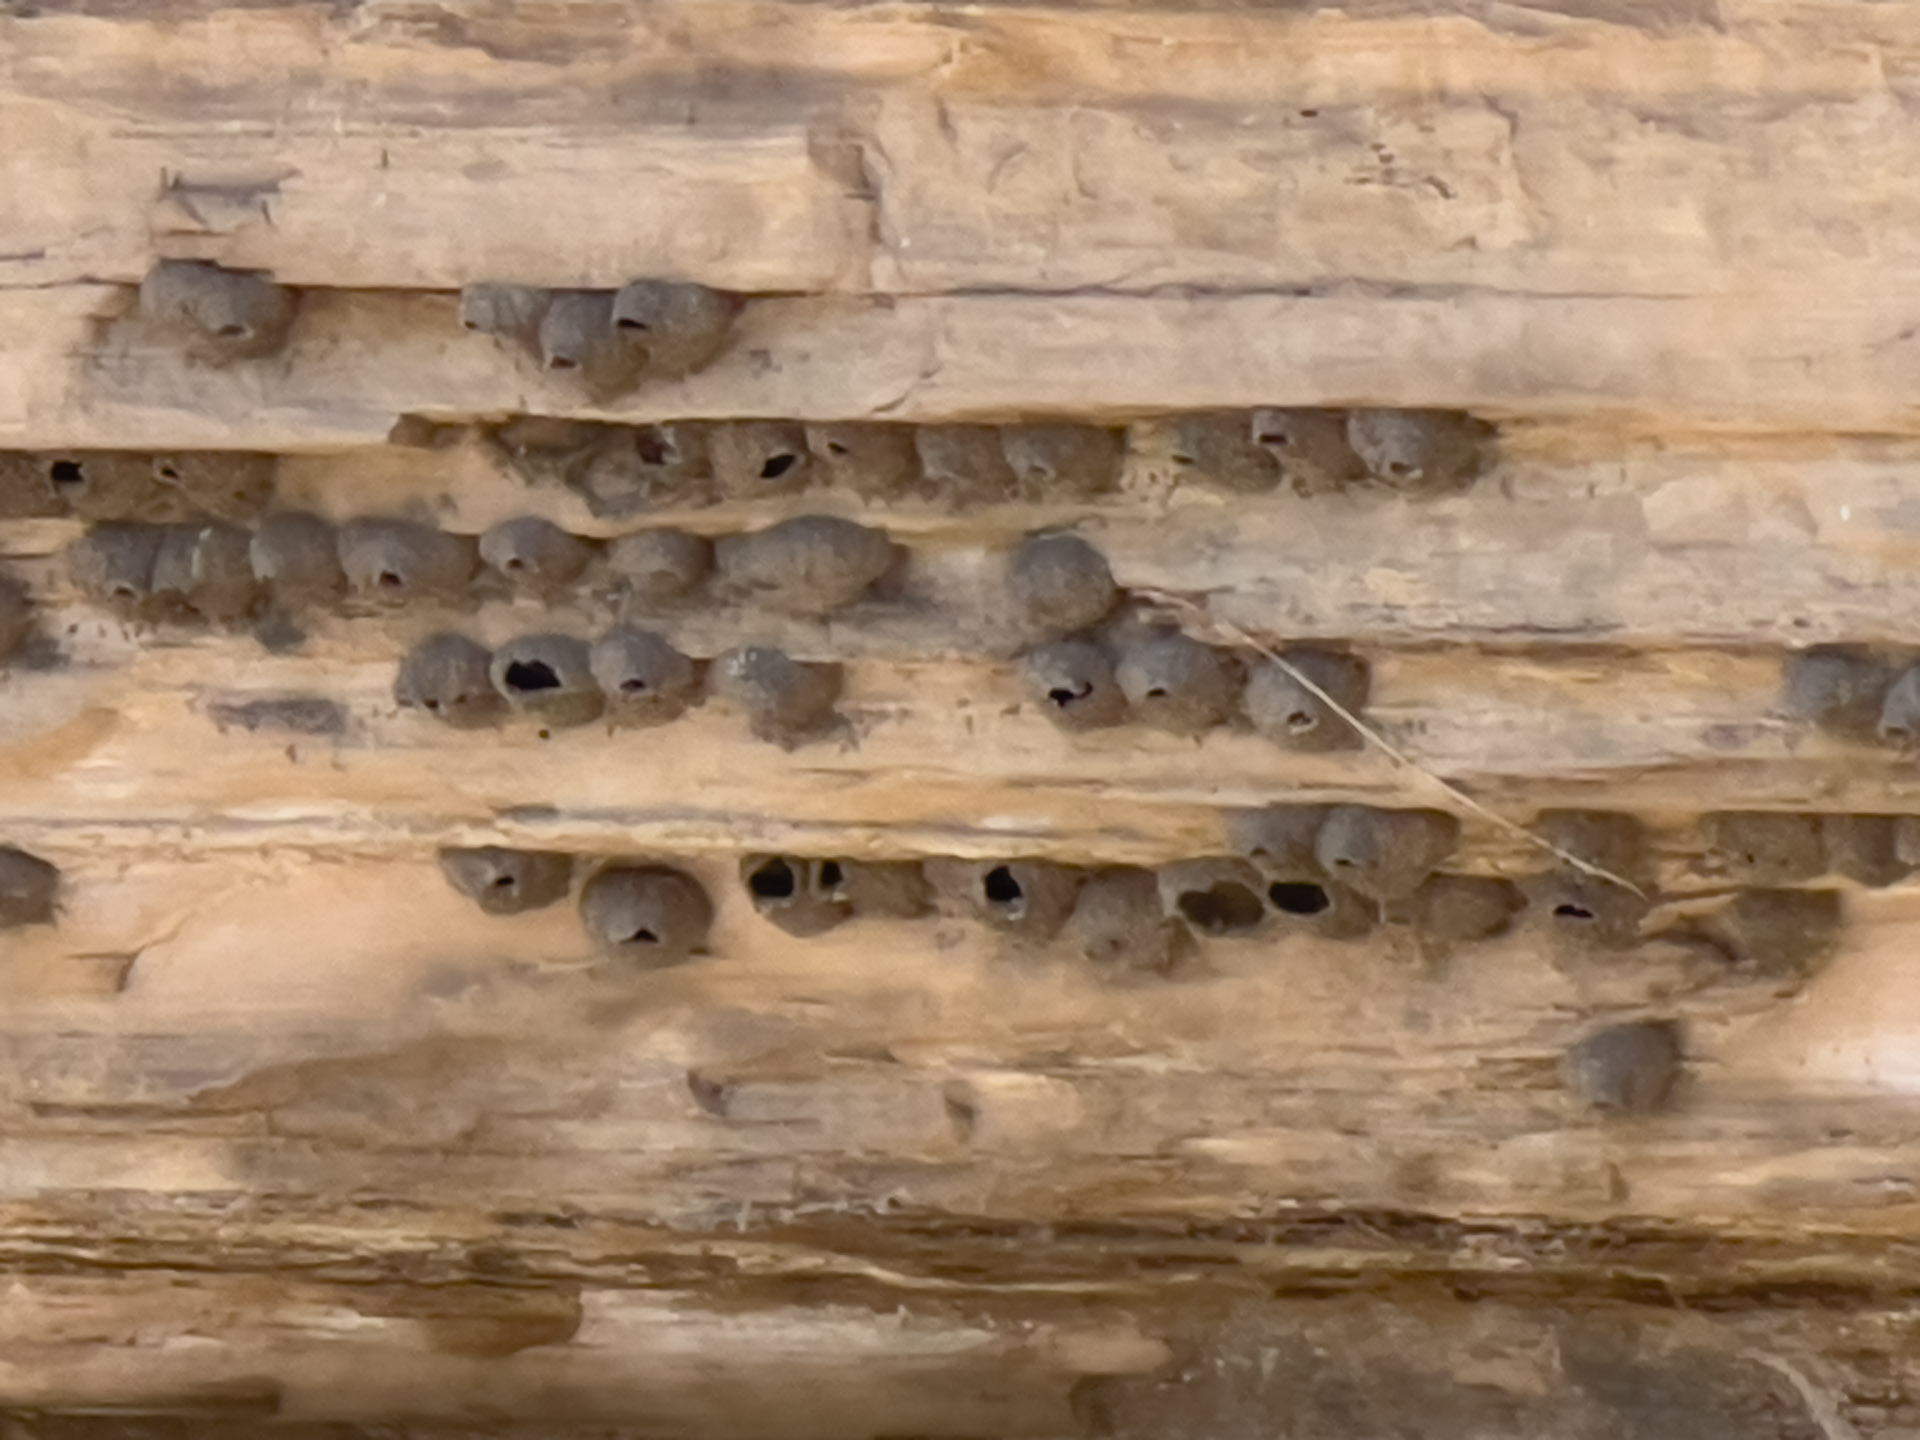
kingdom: Animalia
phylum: Chordata
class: Aves
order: Passeriformes
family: Hirundinidae
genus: Petrochelidon
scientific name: Petrochelidon pyrrhonota
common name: American cliff swallow
